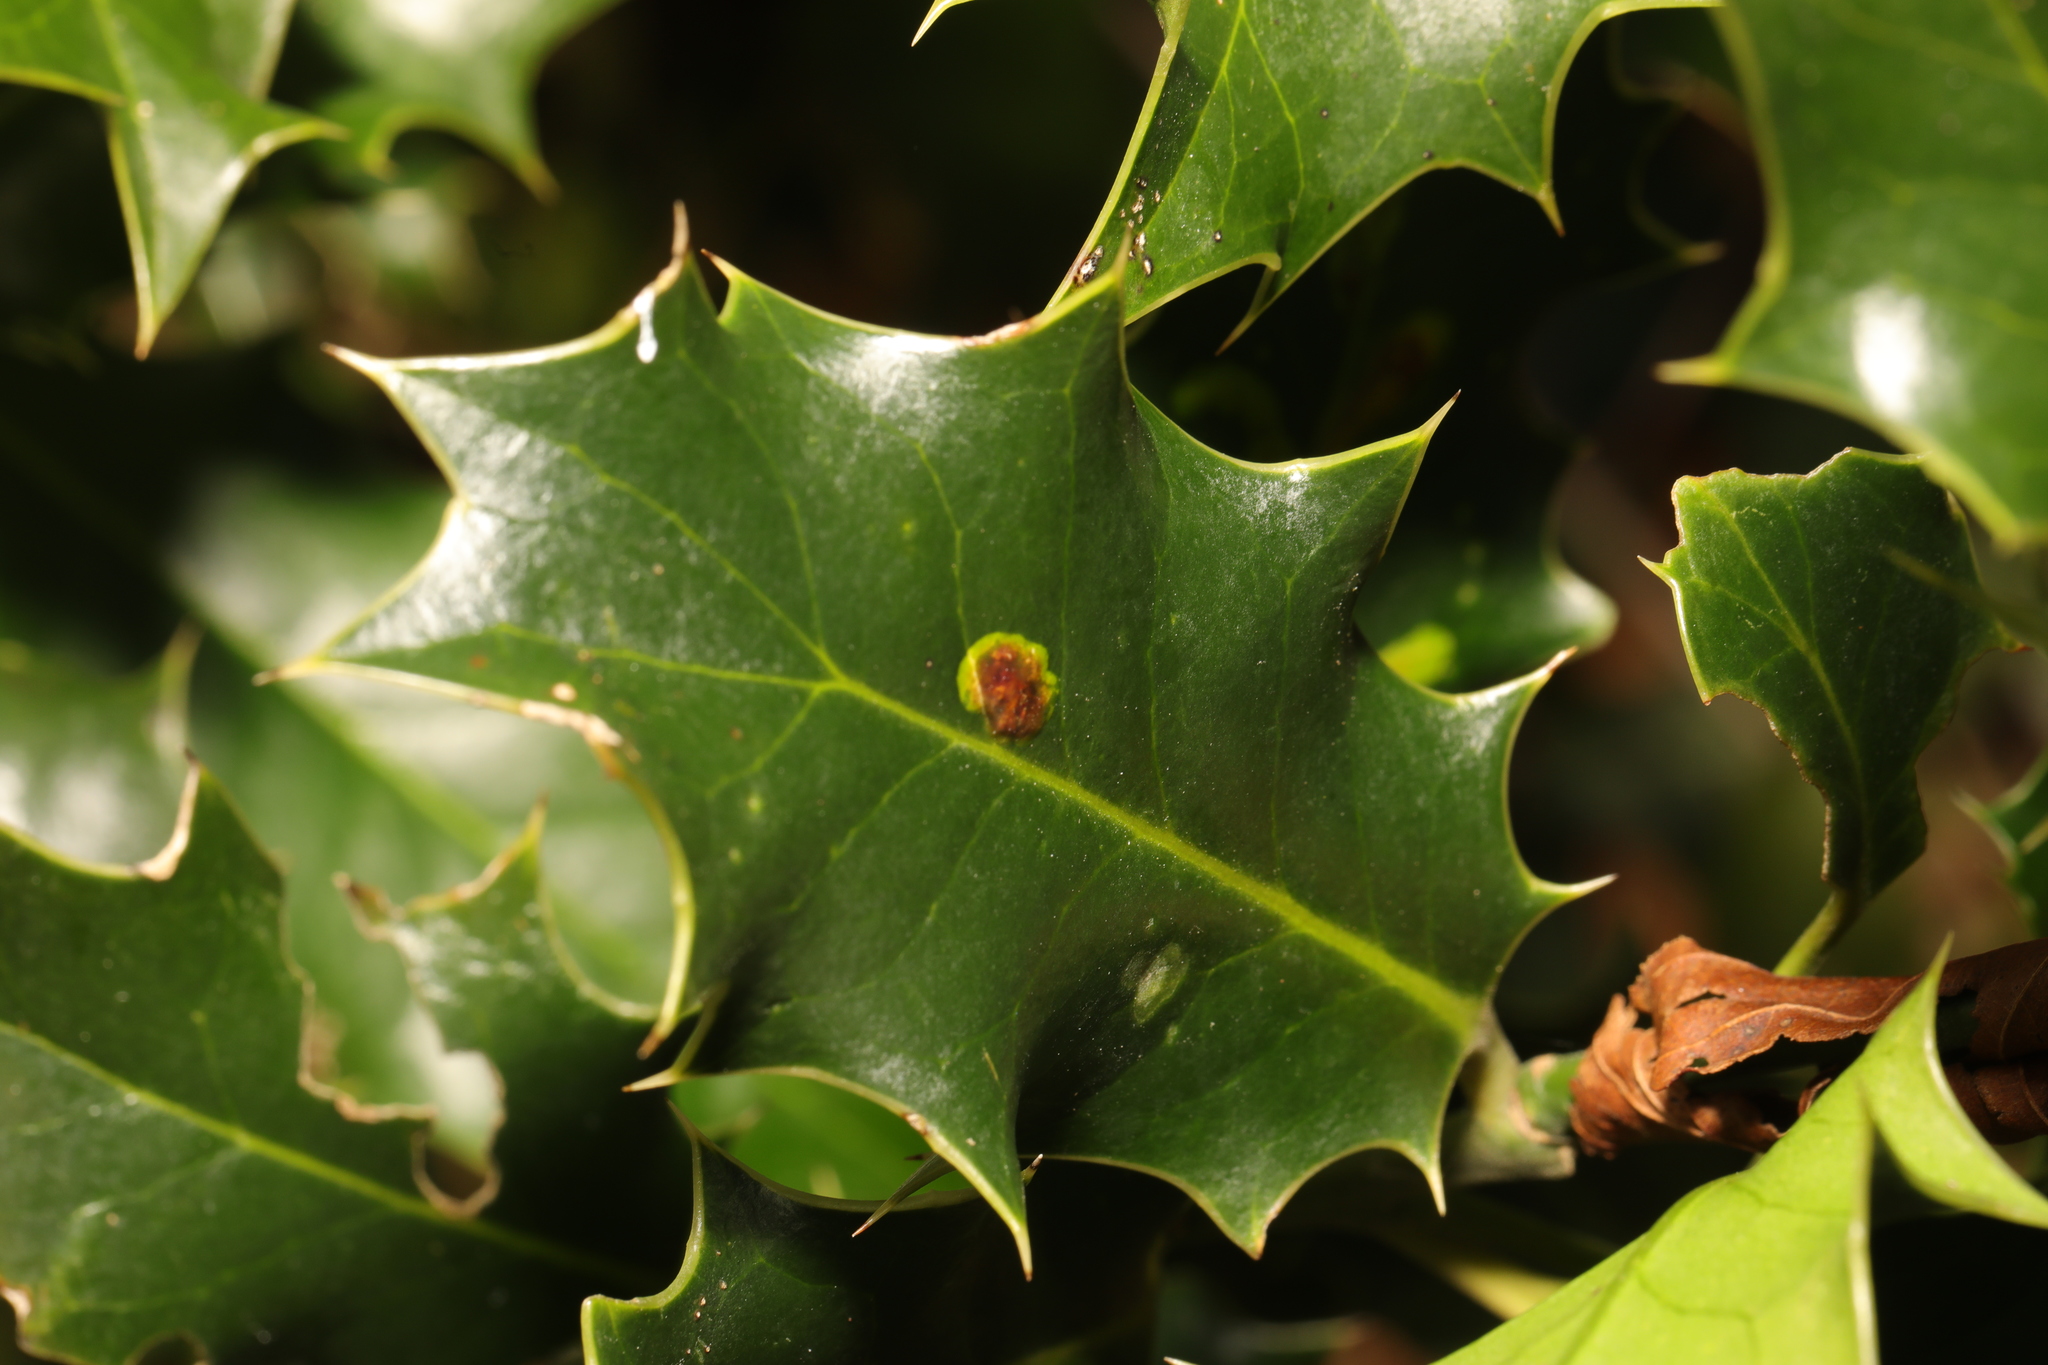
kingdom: Animalia
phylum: Arthropoda
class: Insecta
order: Diptera
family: Agromyzidae
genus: Phytomyza
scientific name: Phytomyza ilicis
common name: Holly leafminer
